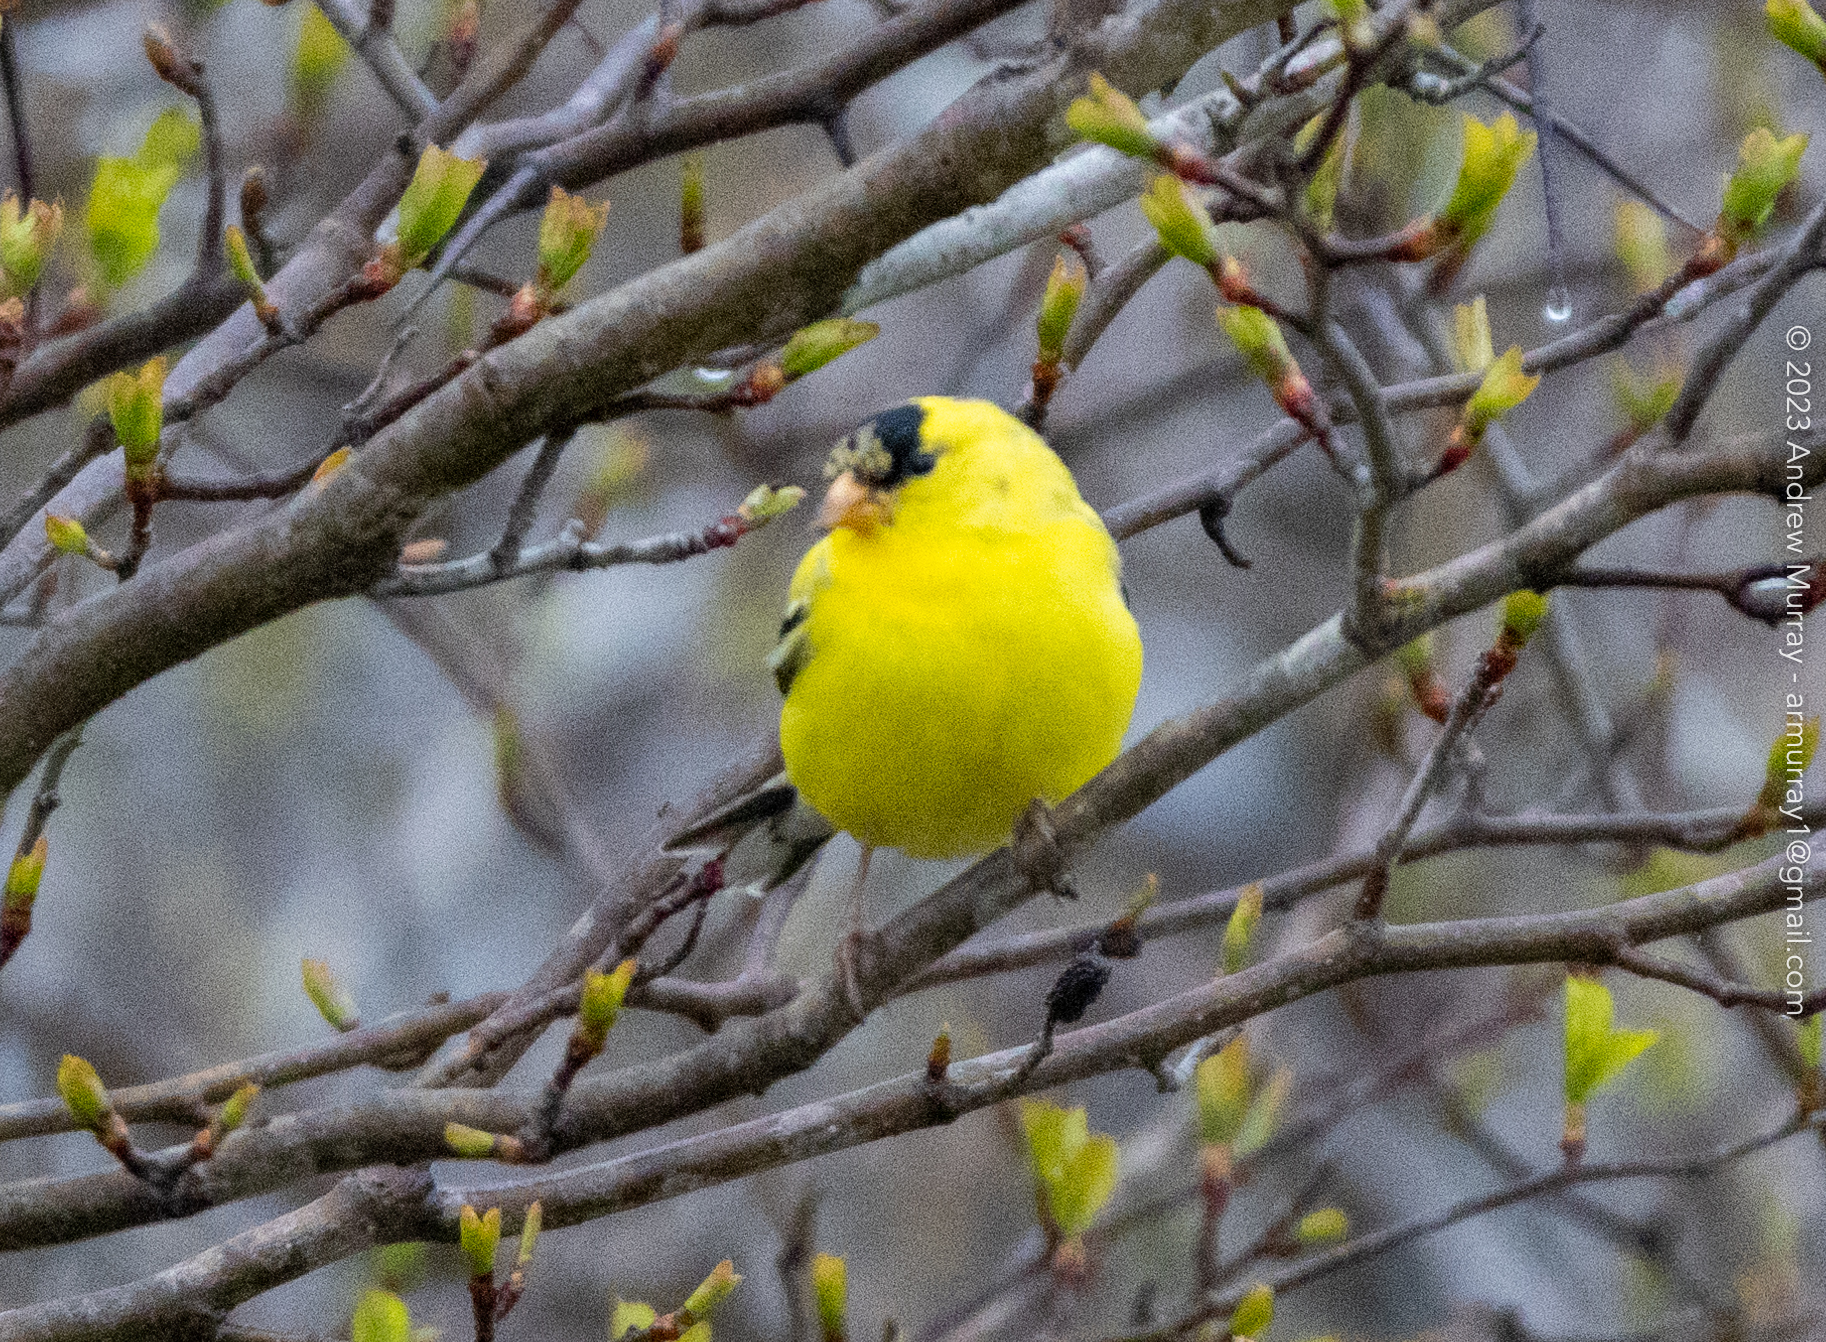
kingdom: Animalia
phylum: Chordata
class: Aves
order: Passeriformes
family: Fringillidae
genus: Spinus
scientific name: Spinus tristis
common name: American goldfinch
